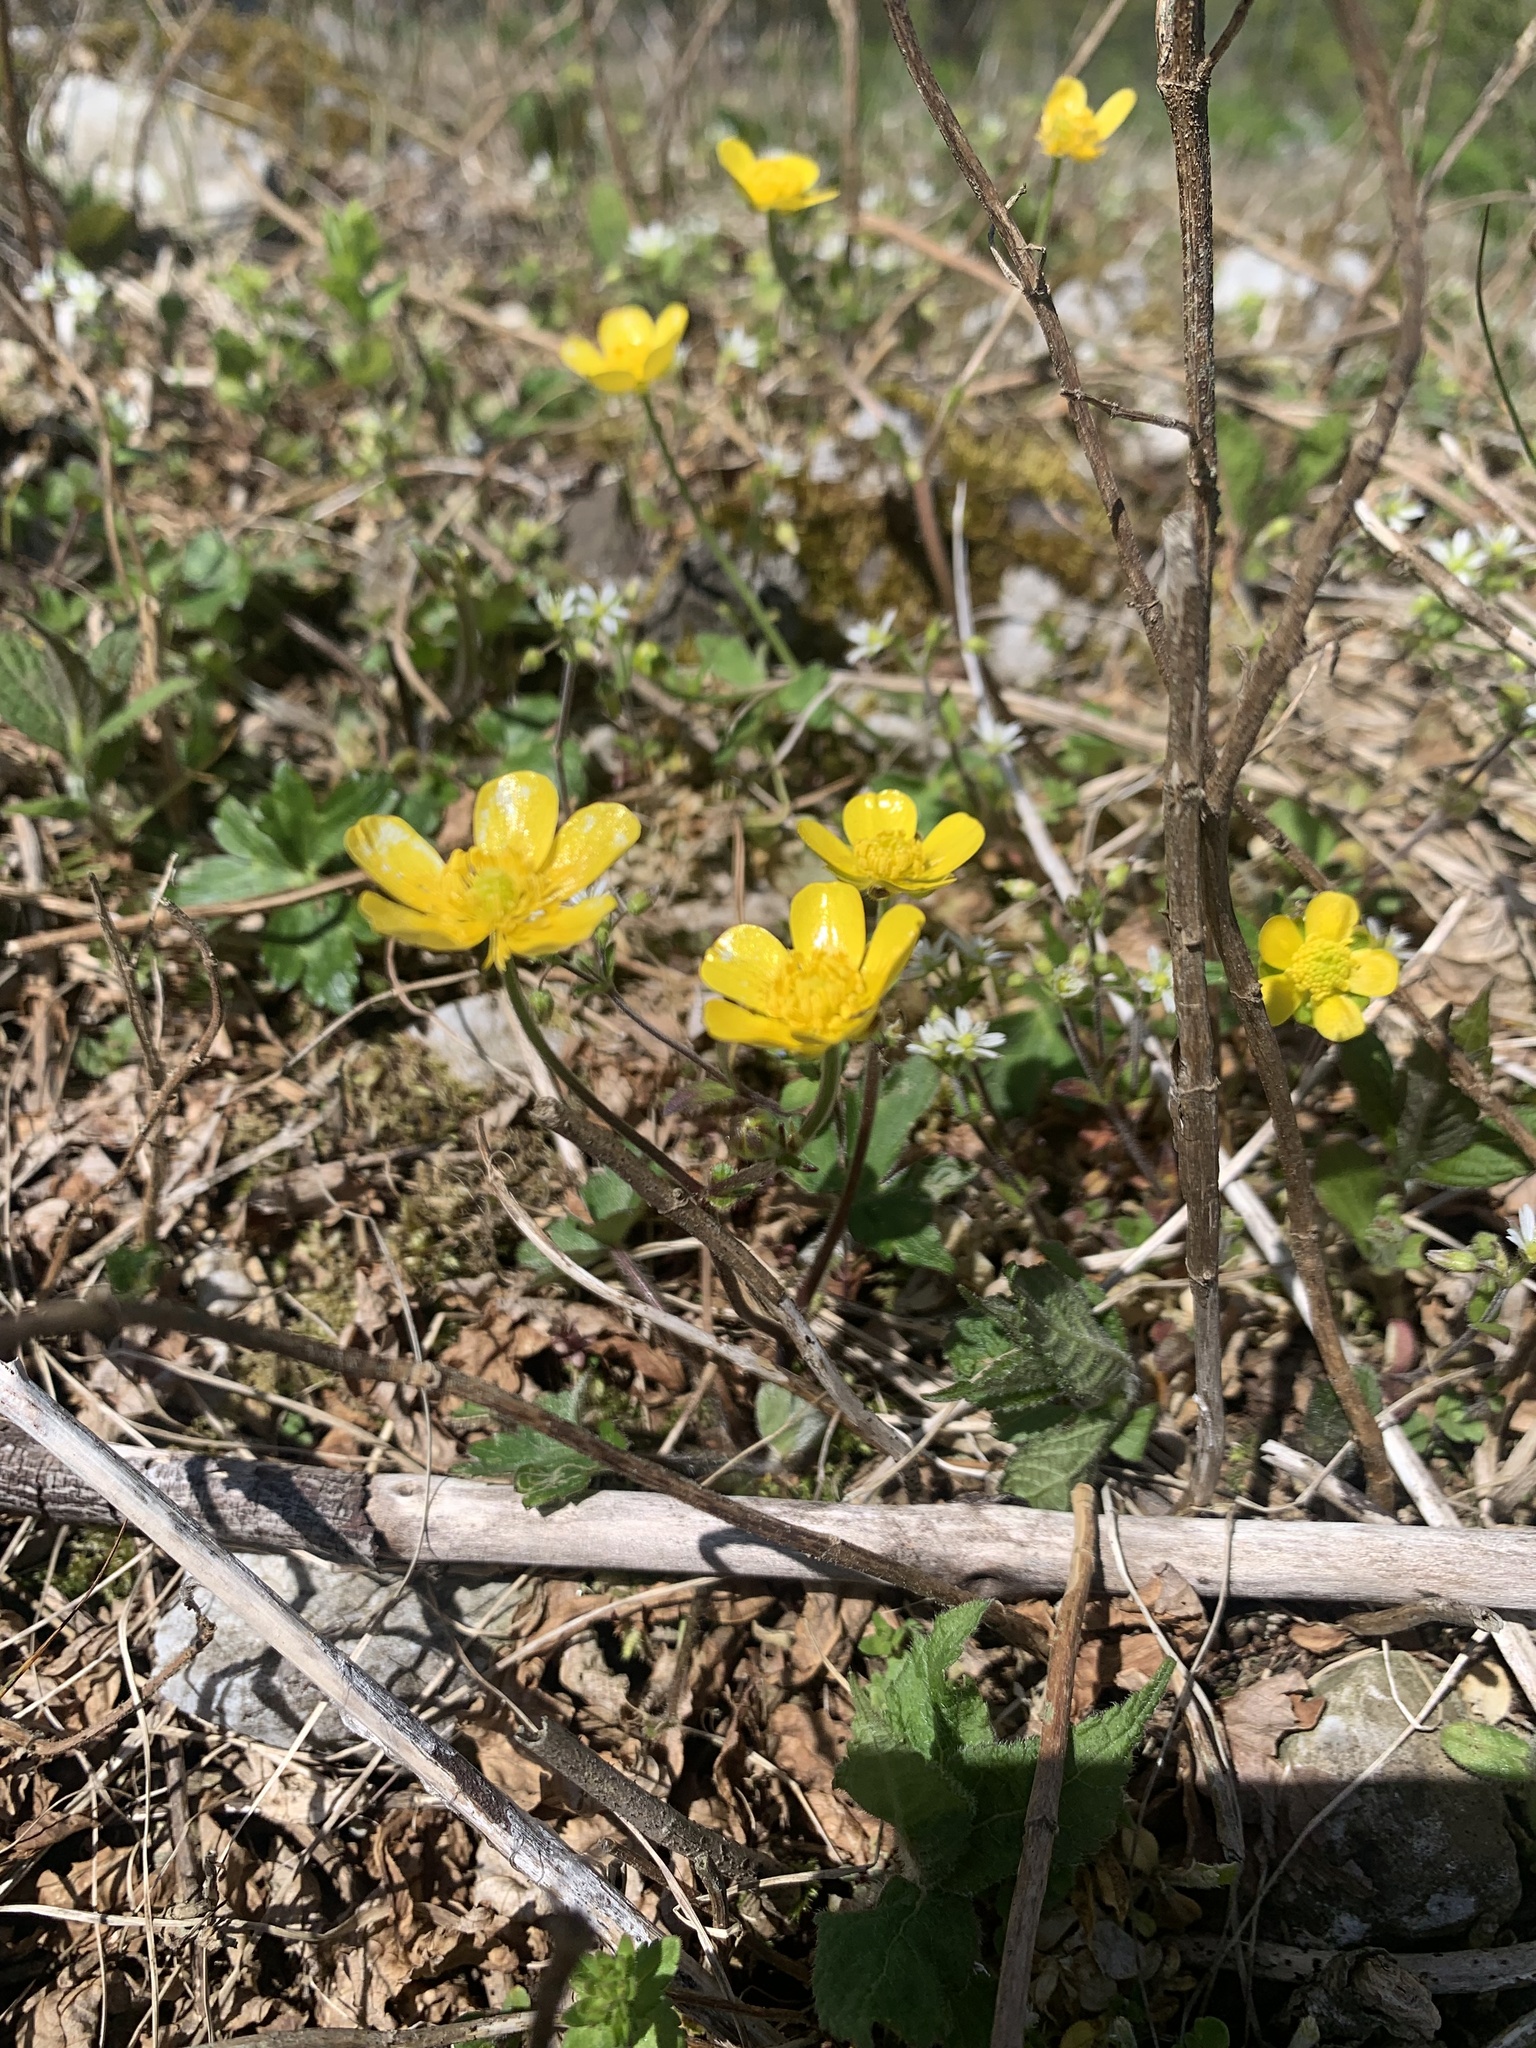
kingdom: Plantae
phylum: Tracheophyta
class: Magnoliopsida
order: Ranunculales
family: Ranunculaceae
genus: Ranunculus
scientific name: Ranunculus japonicus
